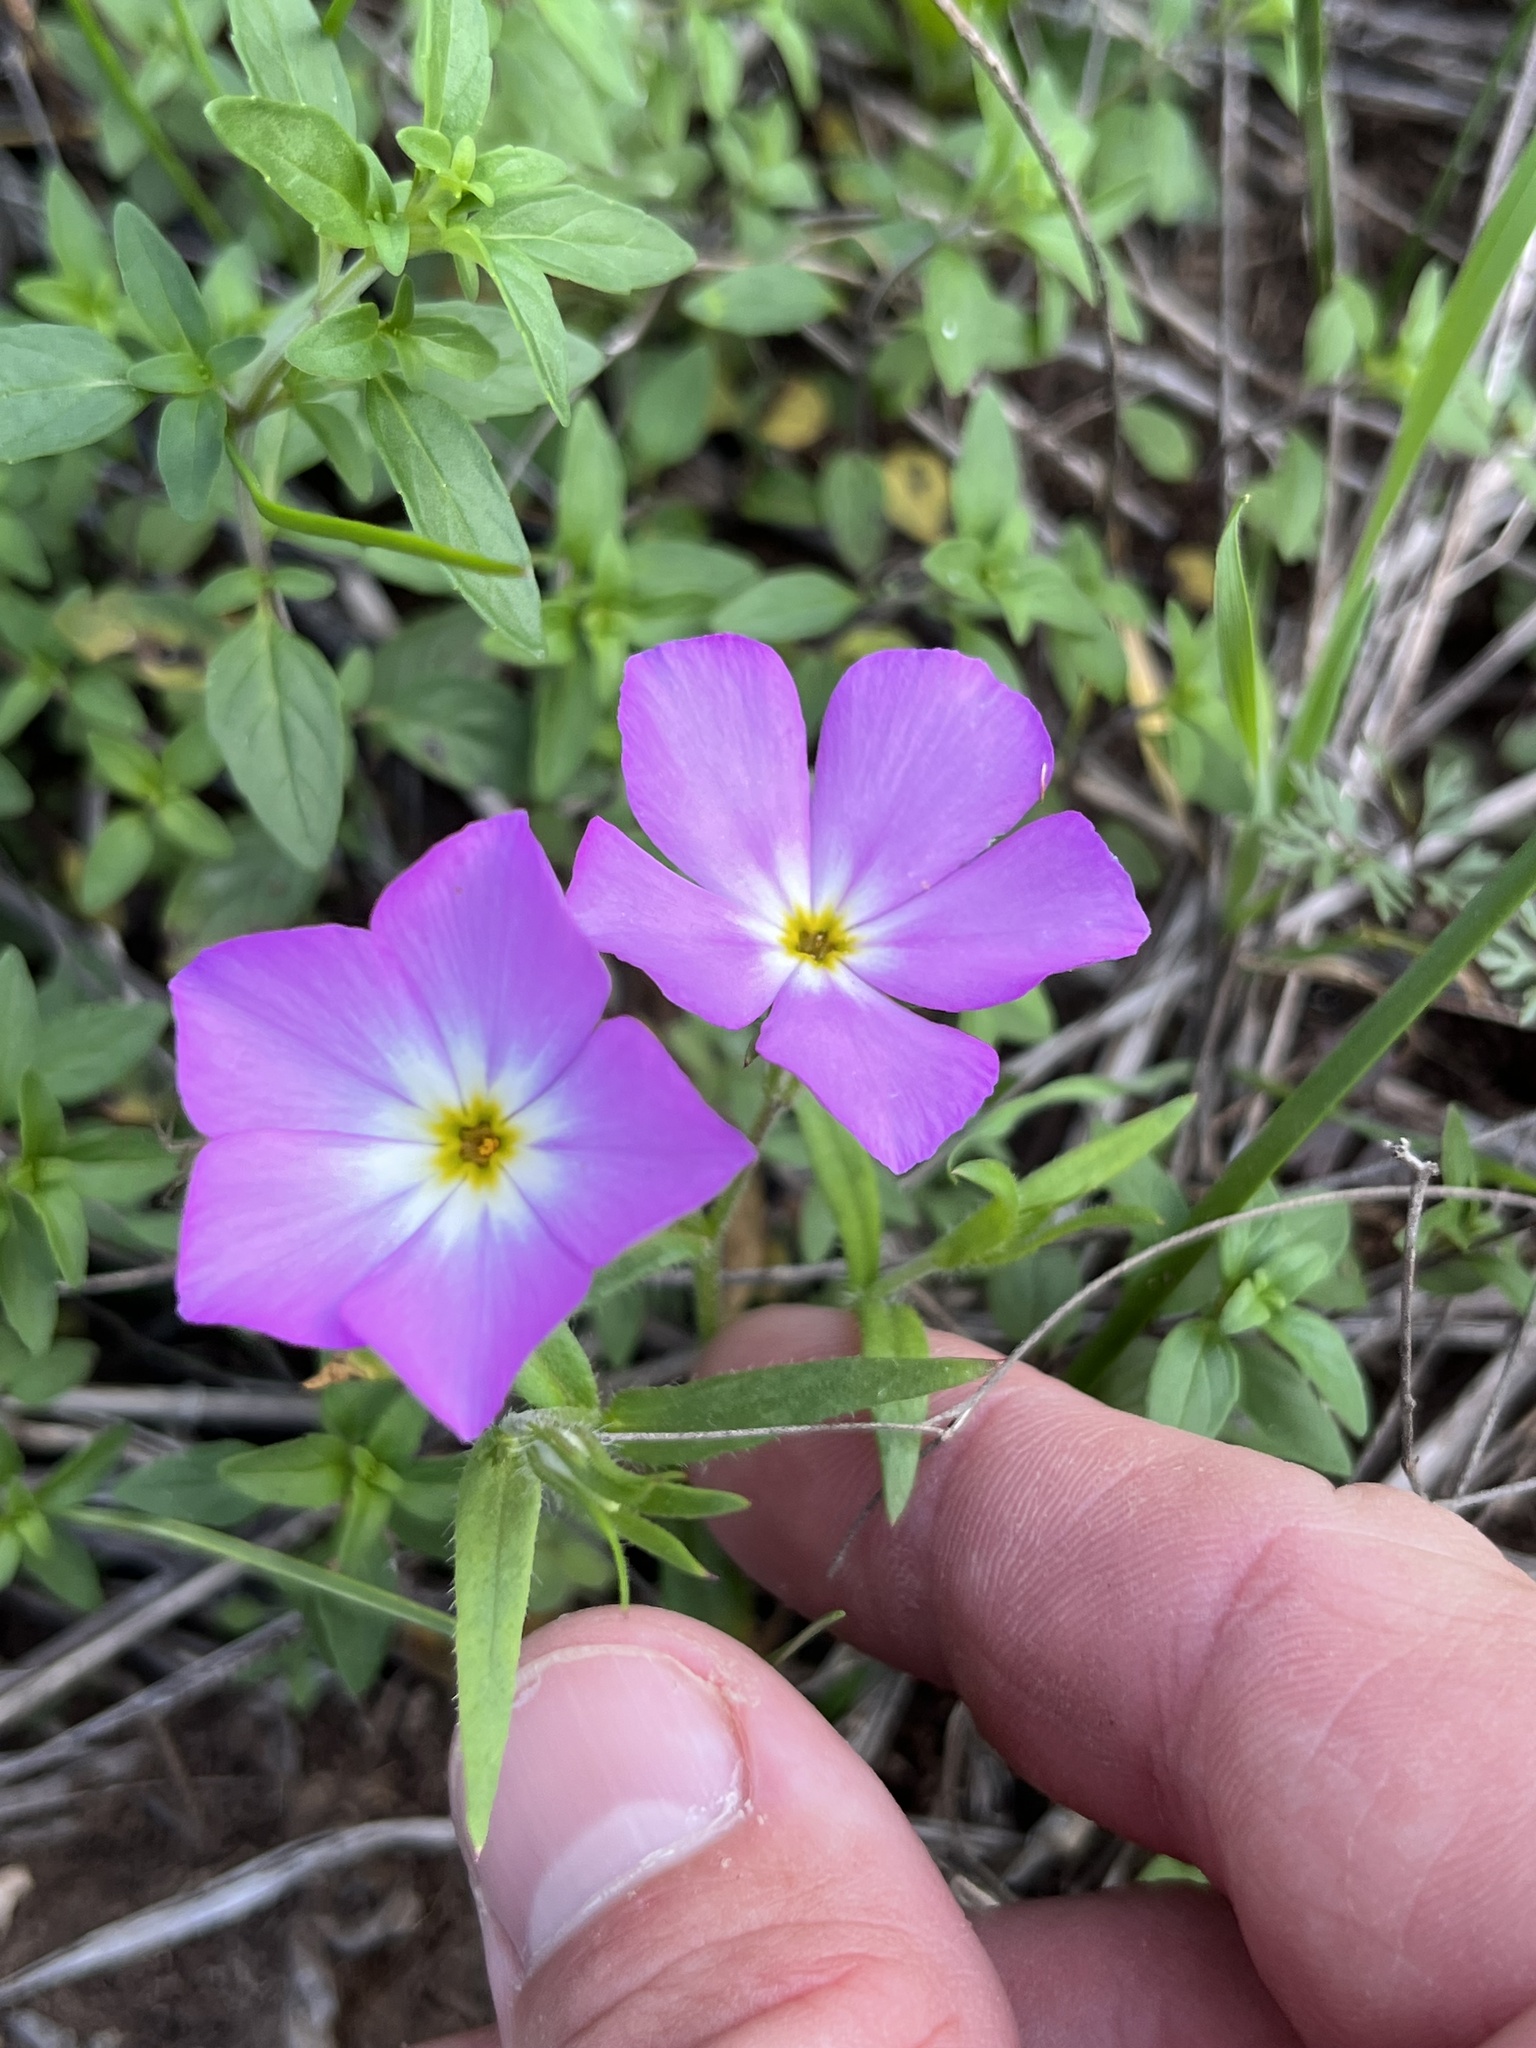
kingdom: Plantae
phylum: Tracheophyta
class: Magnoliopsida
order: Ericales
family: Polemoniaceae
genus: Phlox
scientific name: Phlox roemeriana
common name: Roemer's phlox
